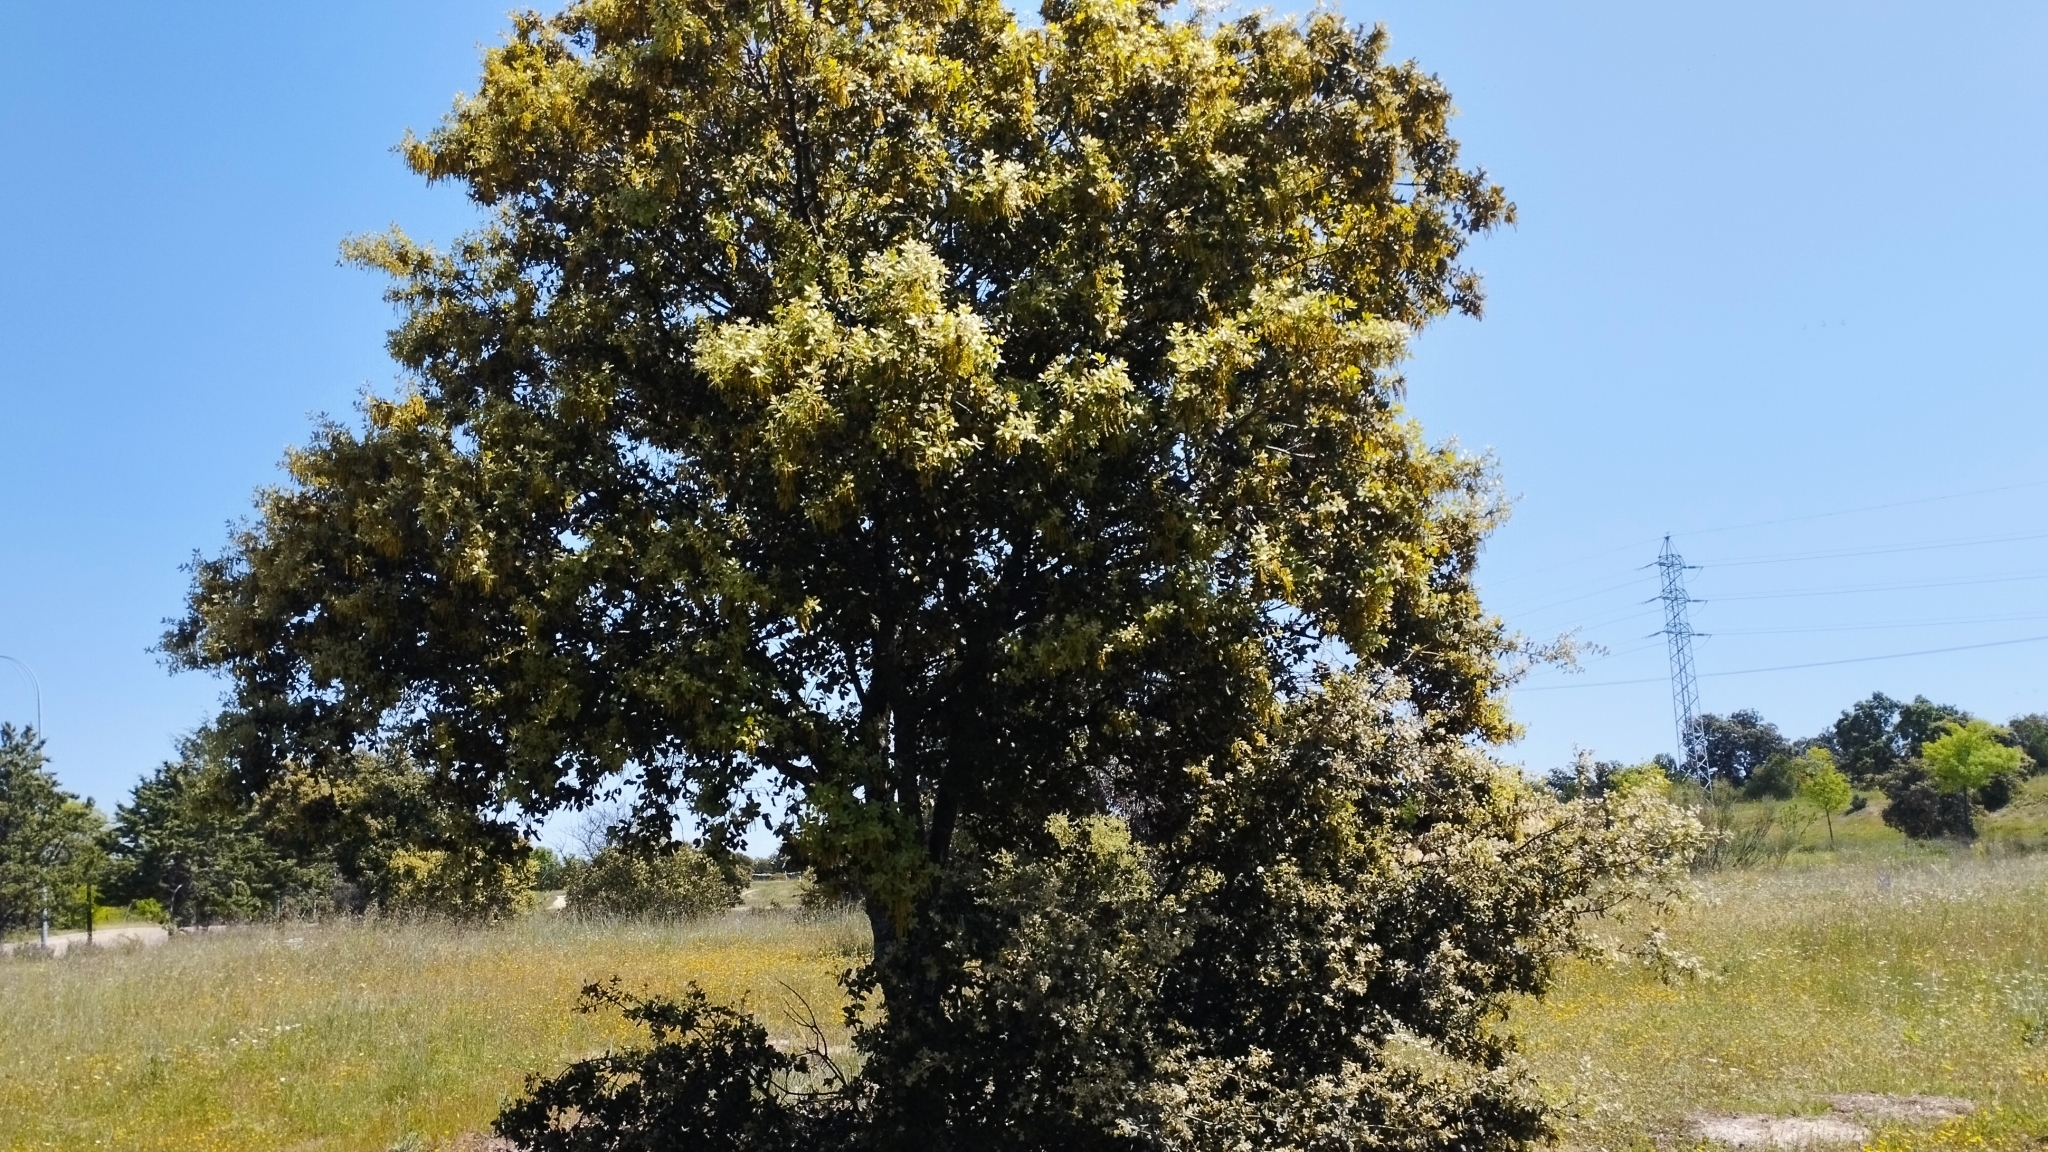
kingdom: Plantae
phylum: Tracheophyta
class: Magnoliopsida
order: Fagales
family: Fagaceae
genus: Quercus
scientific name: Quercus rotundifolia
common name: Holm oak
